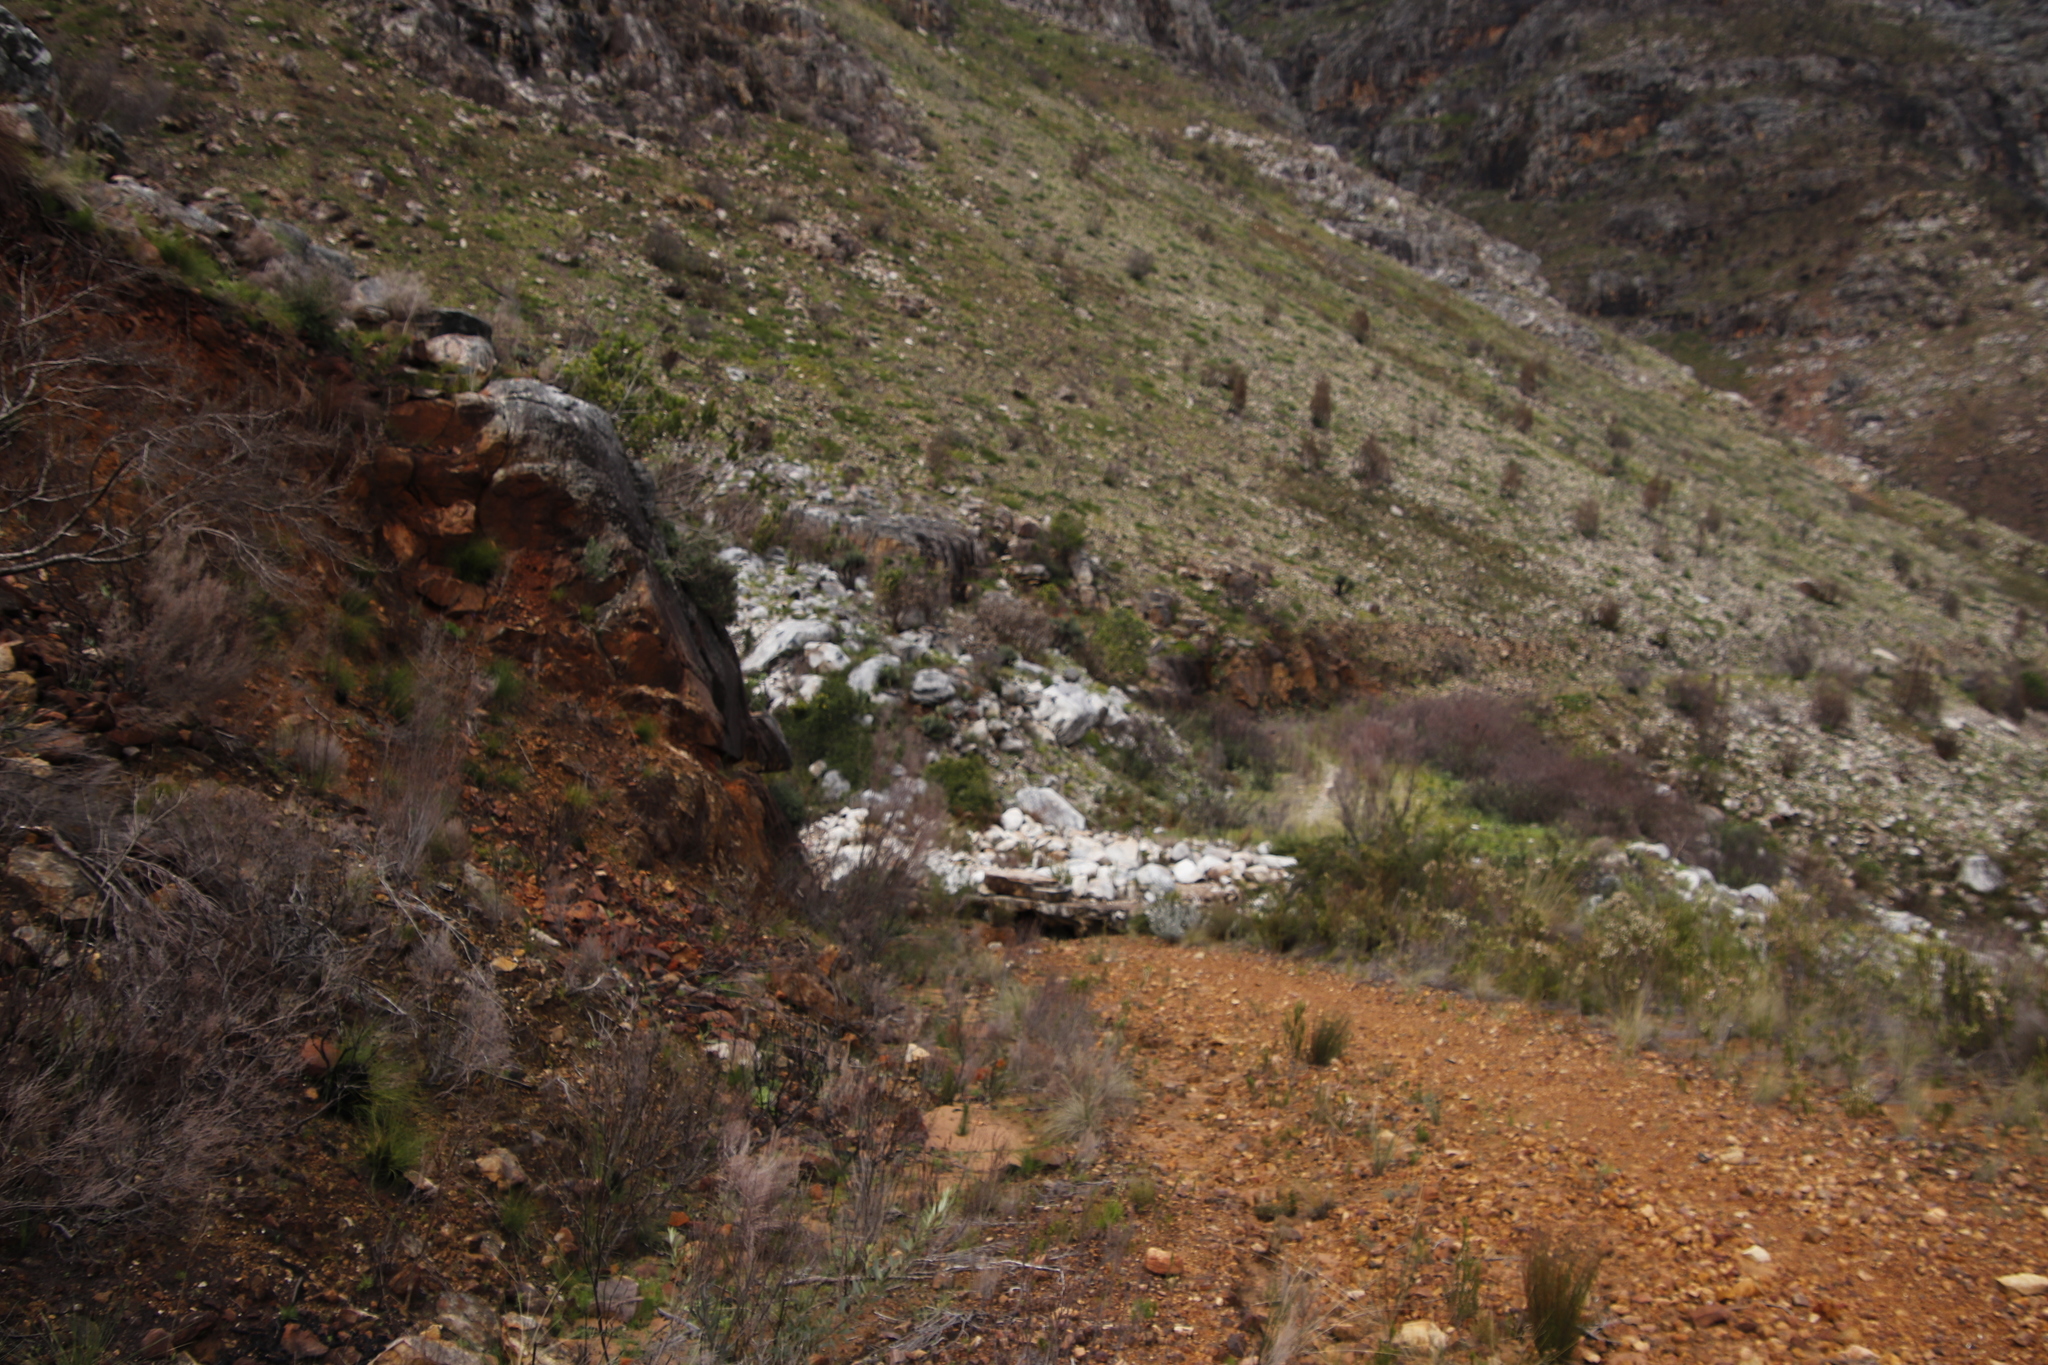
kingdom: Plantae
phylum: Tracheophyta
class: Pinopsida
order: Pinales
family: Pinaceae
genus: Pinus
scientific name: Pinus canariensis
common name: Canary islands pine
